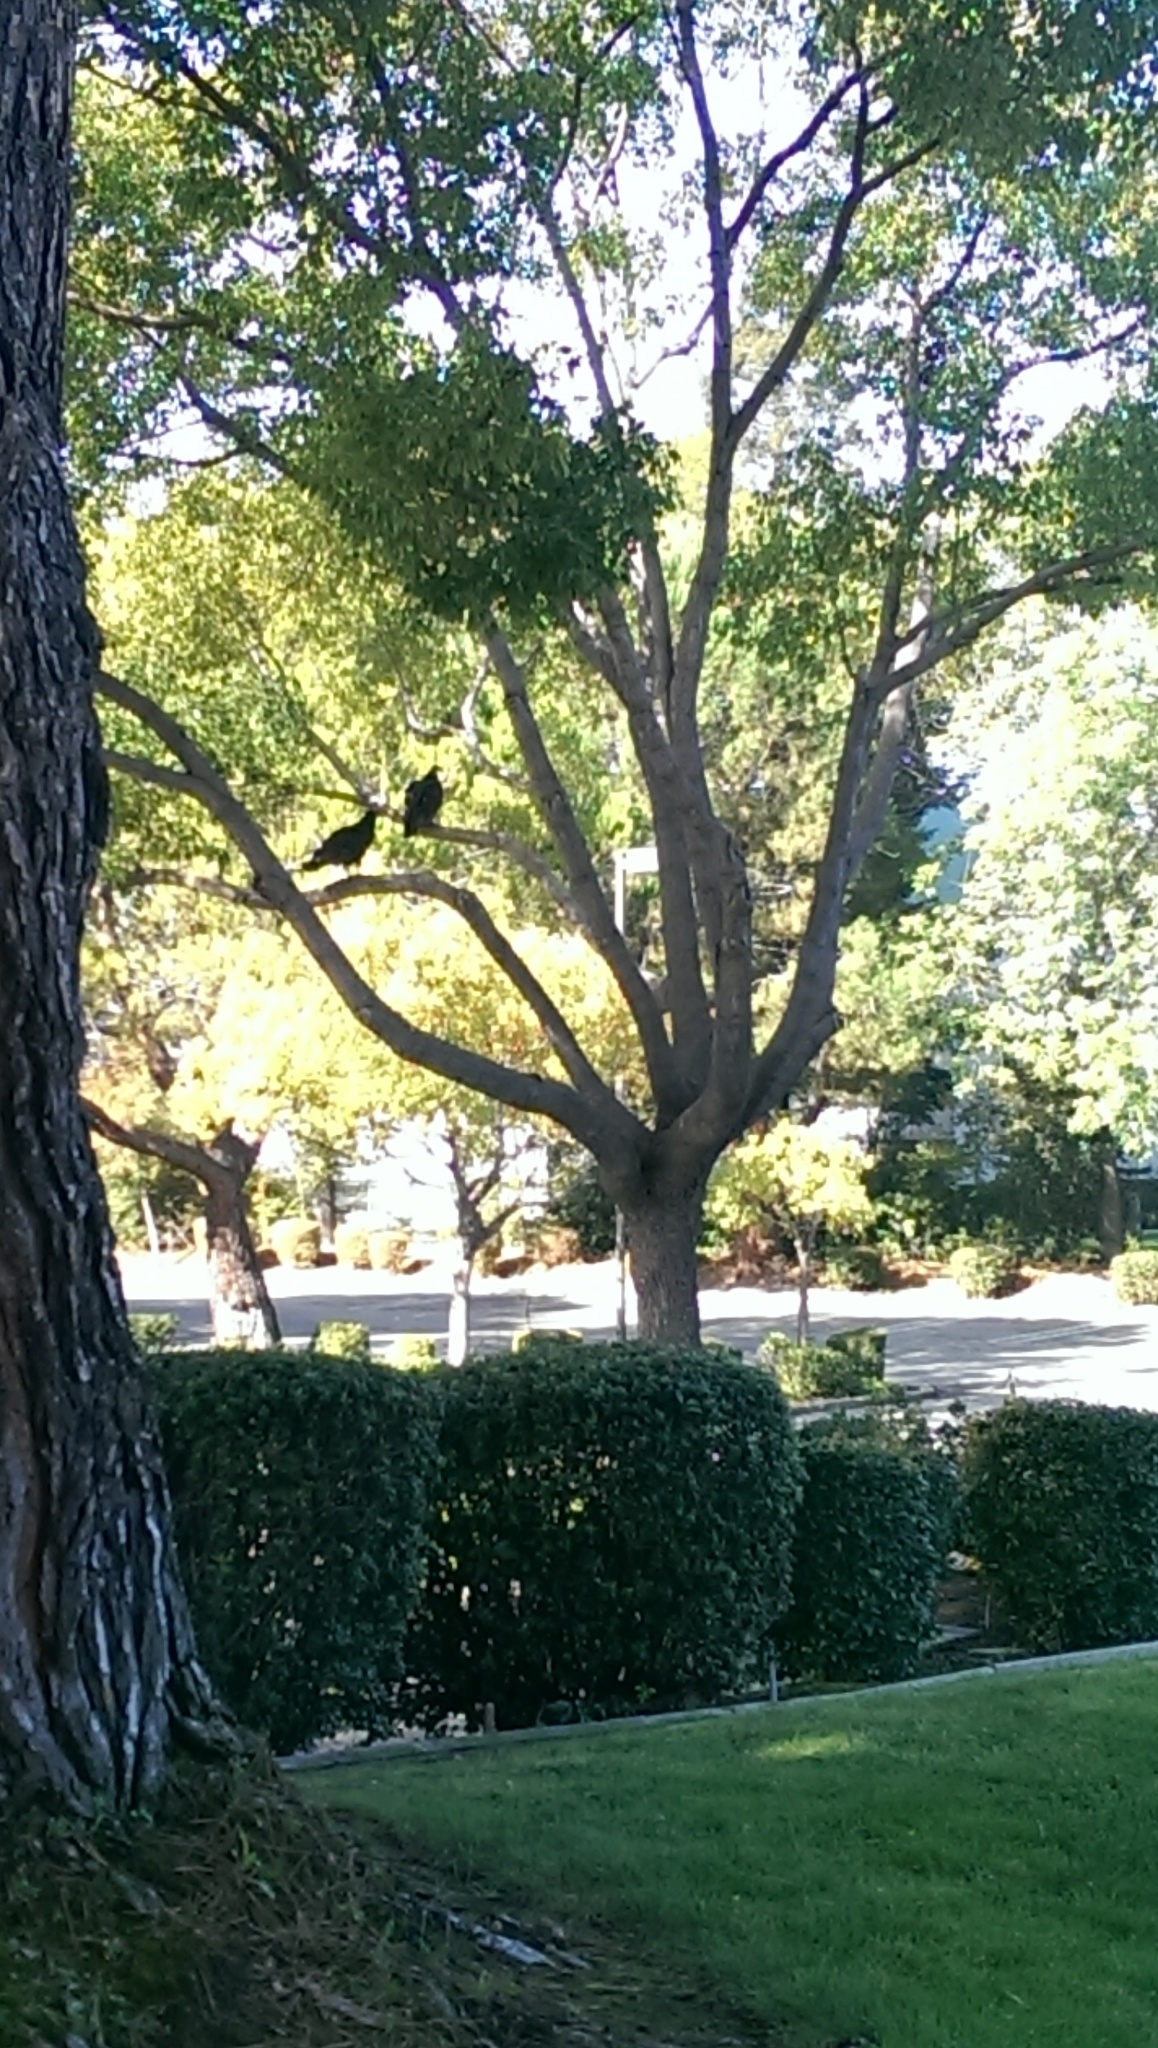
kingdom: Animalia
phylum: Chordata
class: Aves
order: Accipitriformes
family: Cathartidae
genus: Cathartes
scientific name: Cathartes aura
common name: Turkey vulture
